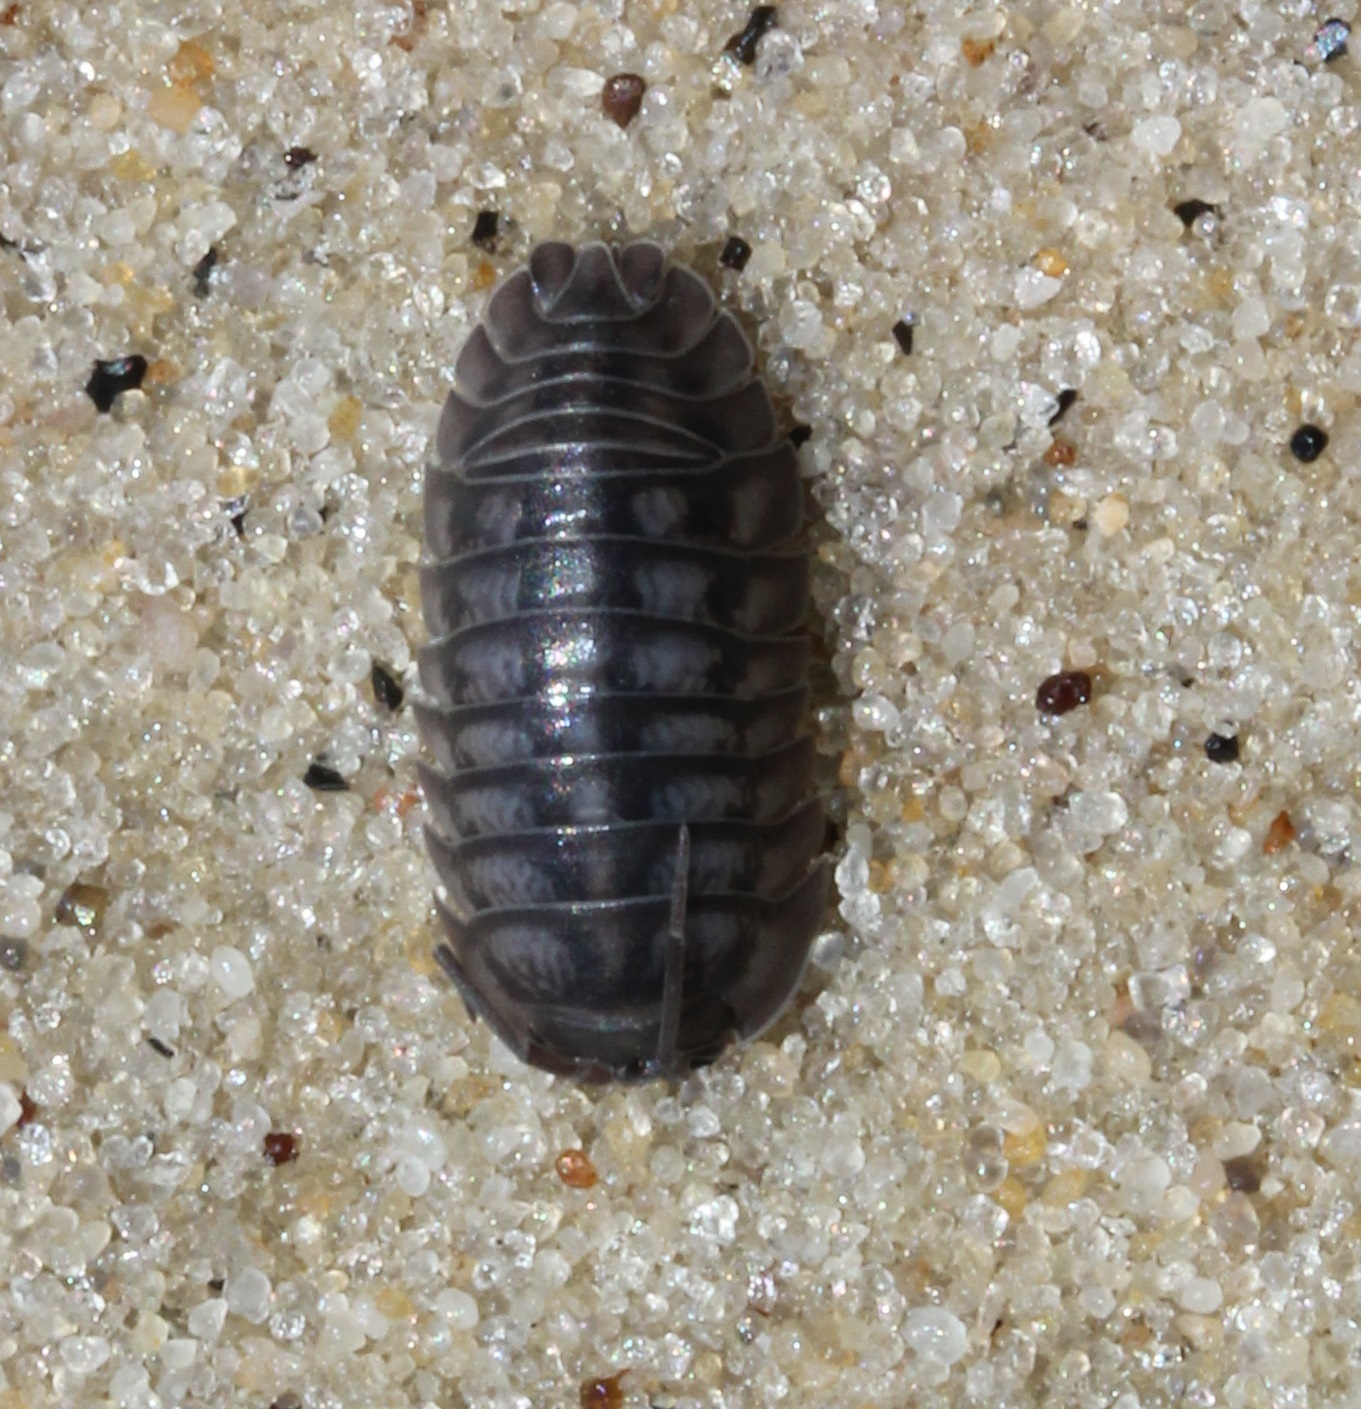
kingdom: Animalia
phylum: Arthropoda
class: Malacostraca
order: Isopoda
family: Armadillidiidae
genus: Armadillidium
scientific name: Armadillidium nasatum
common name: Isopod
